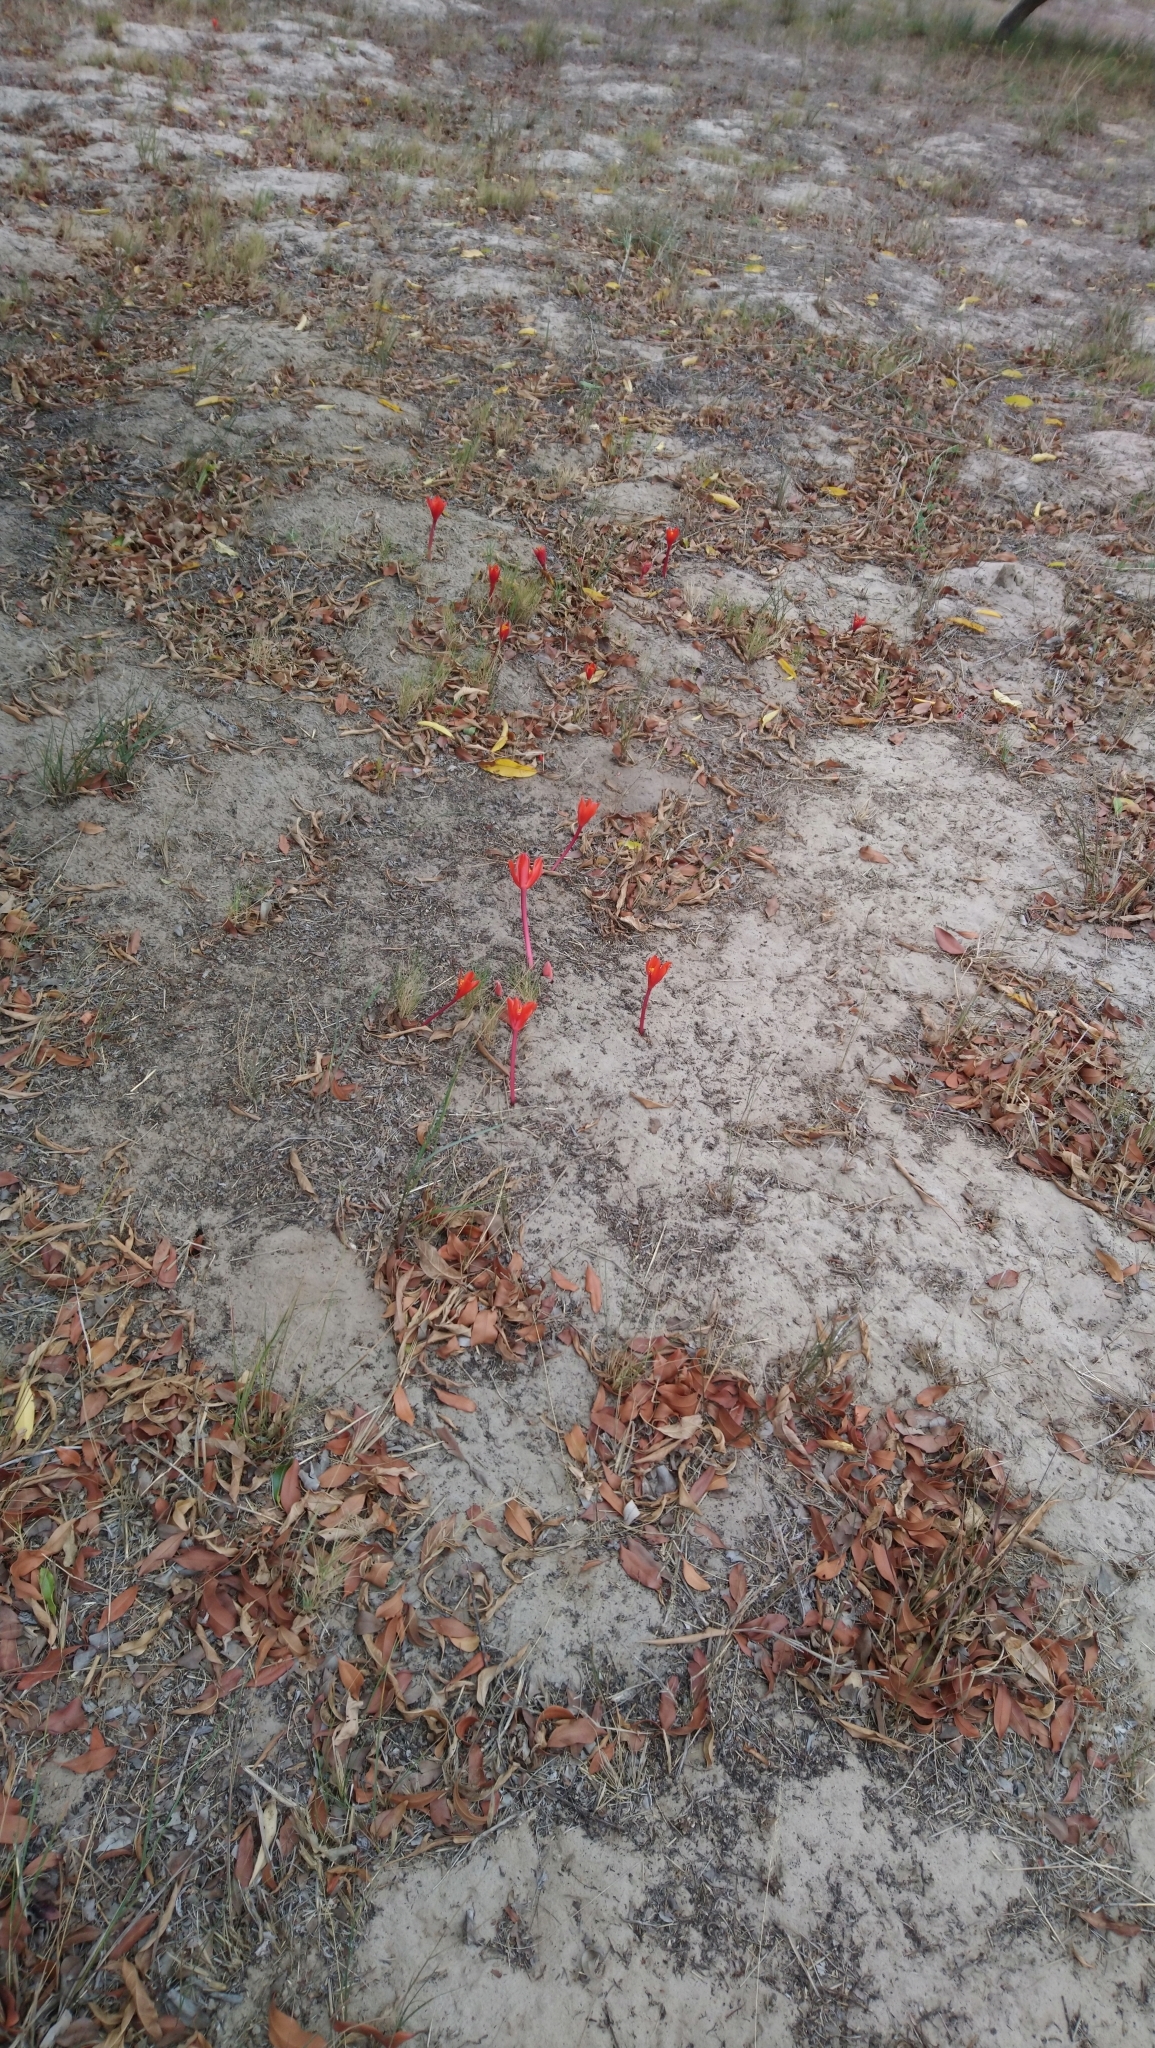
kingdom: Plantae
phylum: Tracheophyta
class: Liliopsida
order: Asparagales
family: Amaryllidaceae
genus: Haemanthus
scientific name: Haemanthus pubescens
